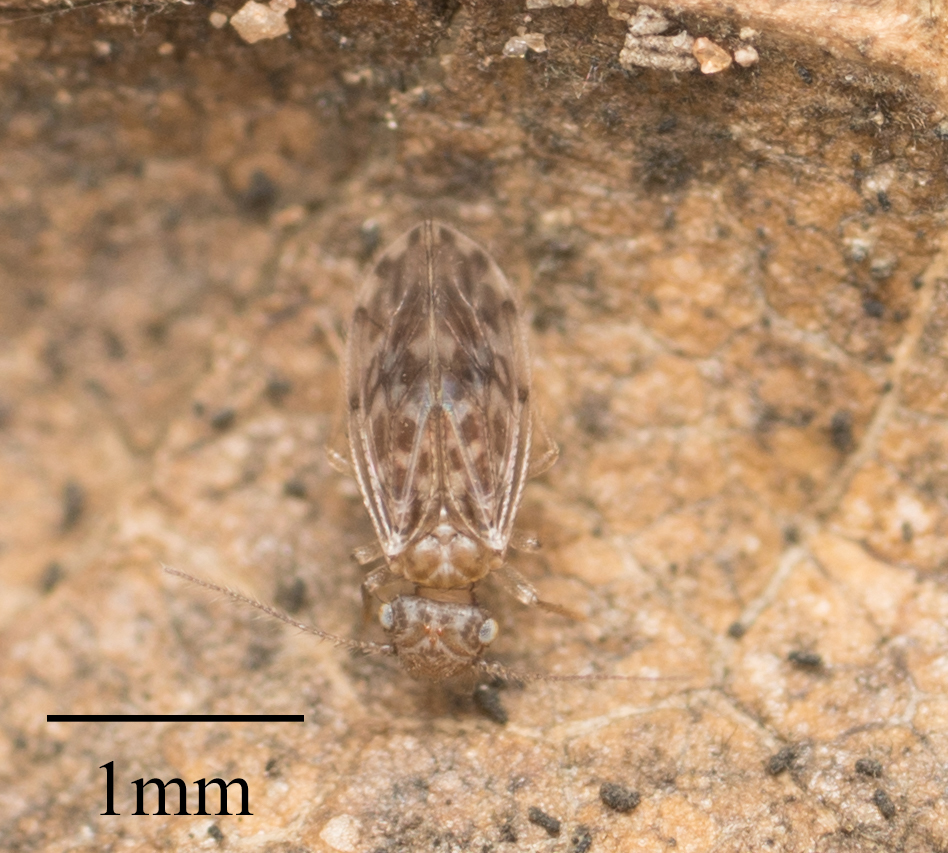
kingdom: Animalia
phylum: Arthropoda
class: Insecta
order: Psocodea
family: Ectopsocidae
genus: Ectopsocus
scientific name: Ectopsocus strauchi
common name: Medium-sized bark louse
